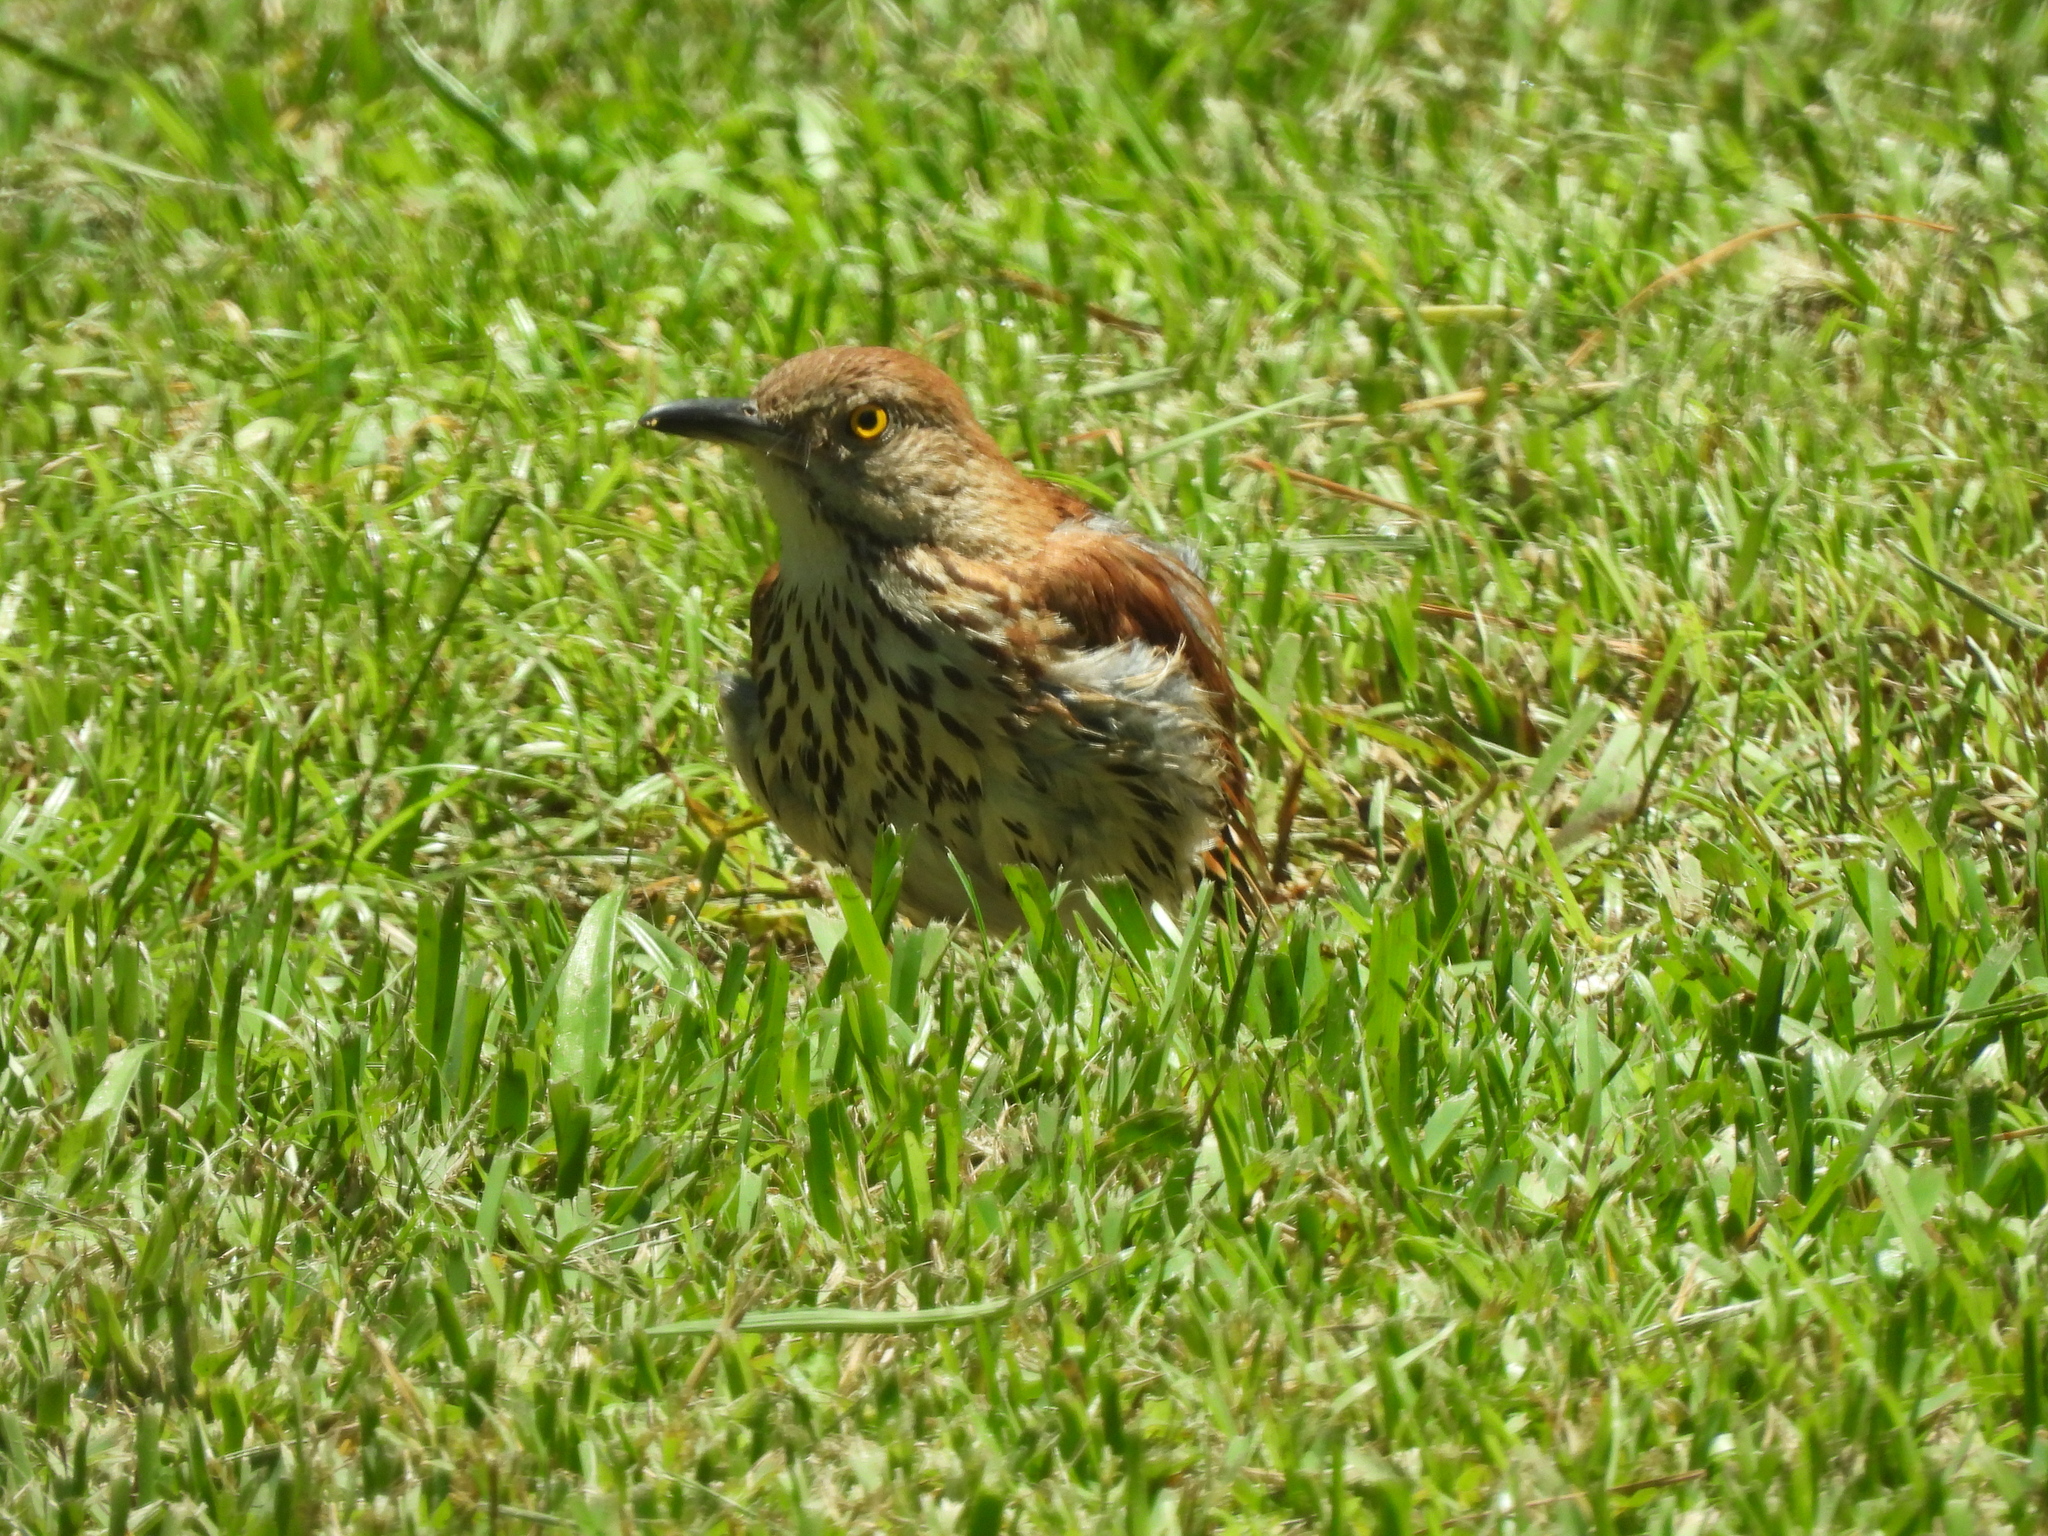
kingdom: Animalia
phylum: Chordata
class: Aves
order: Passeriformes
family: Mimidae
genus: Toxostoma
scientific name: Toxostoma rufum
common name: Brown thrasher
